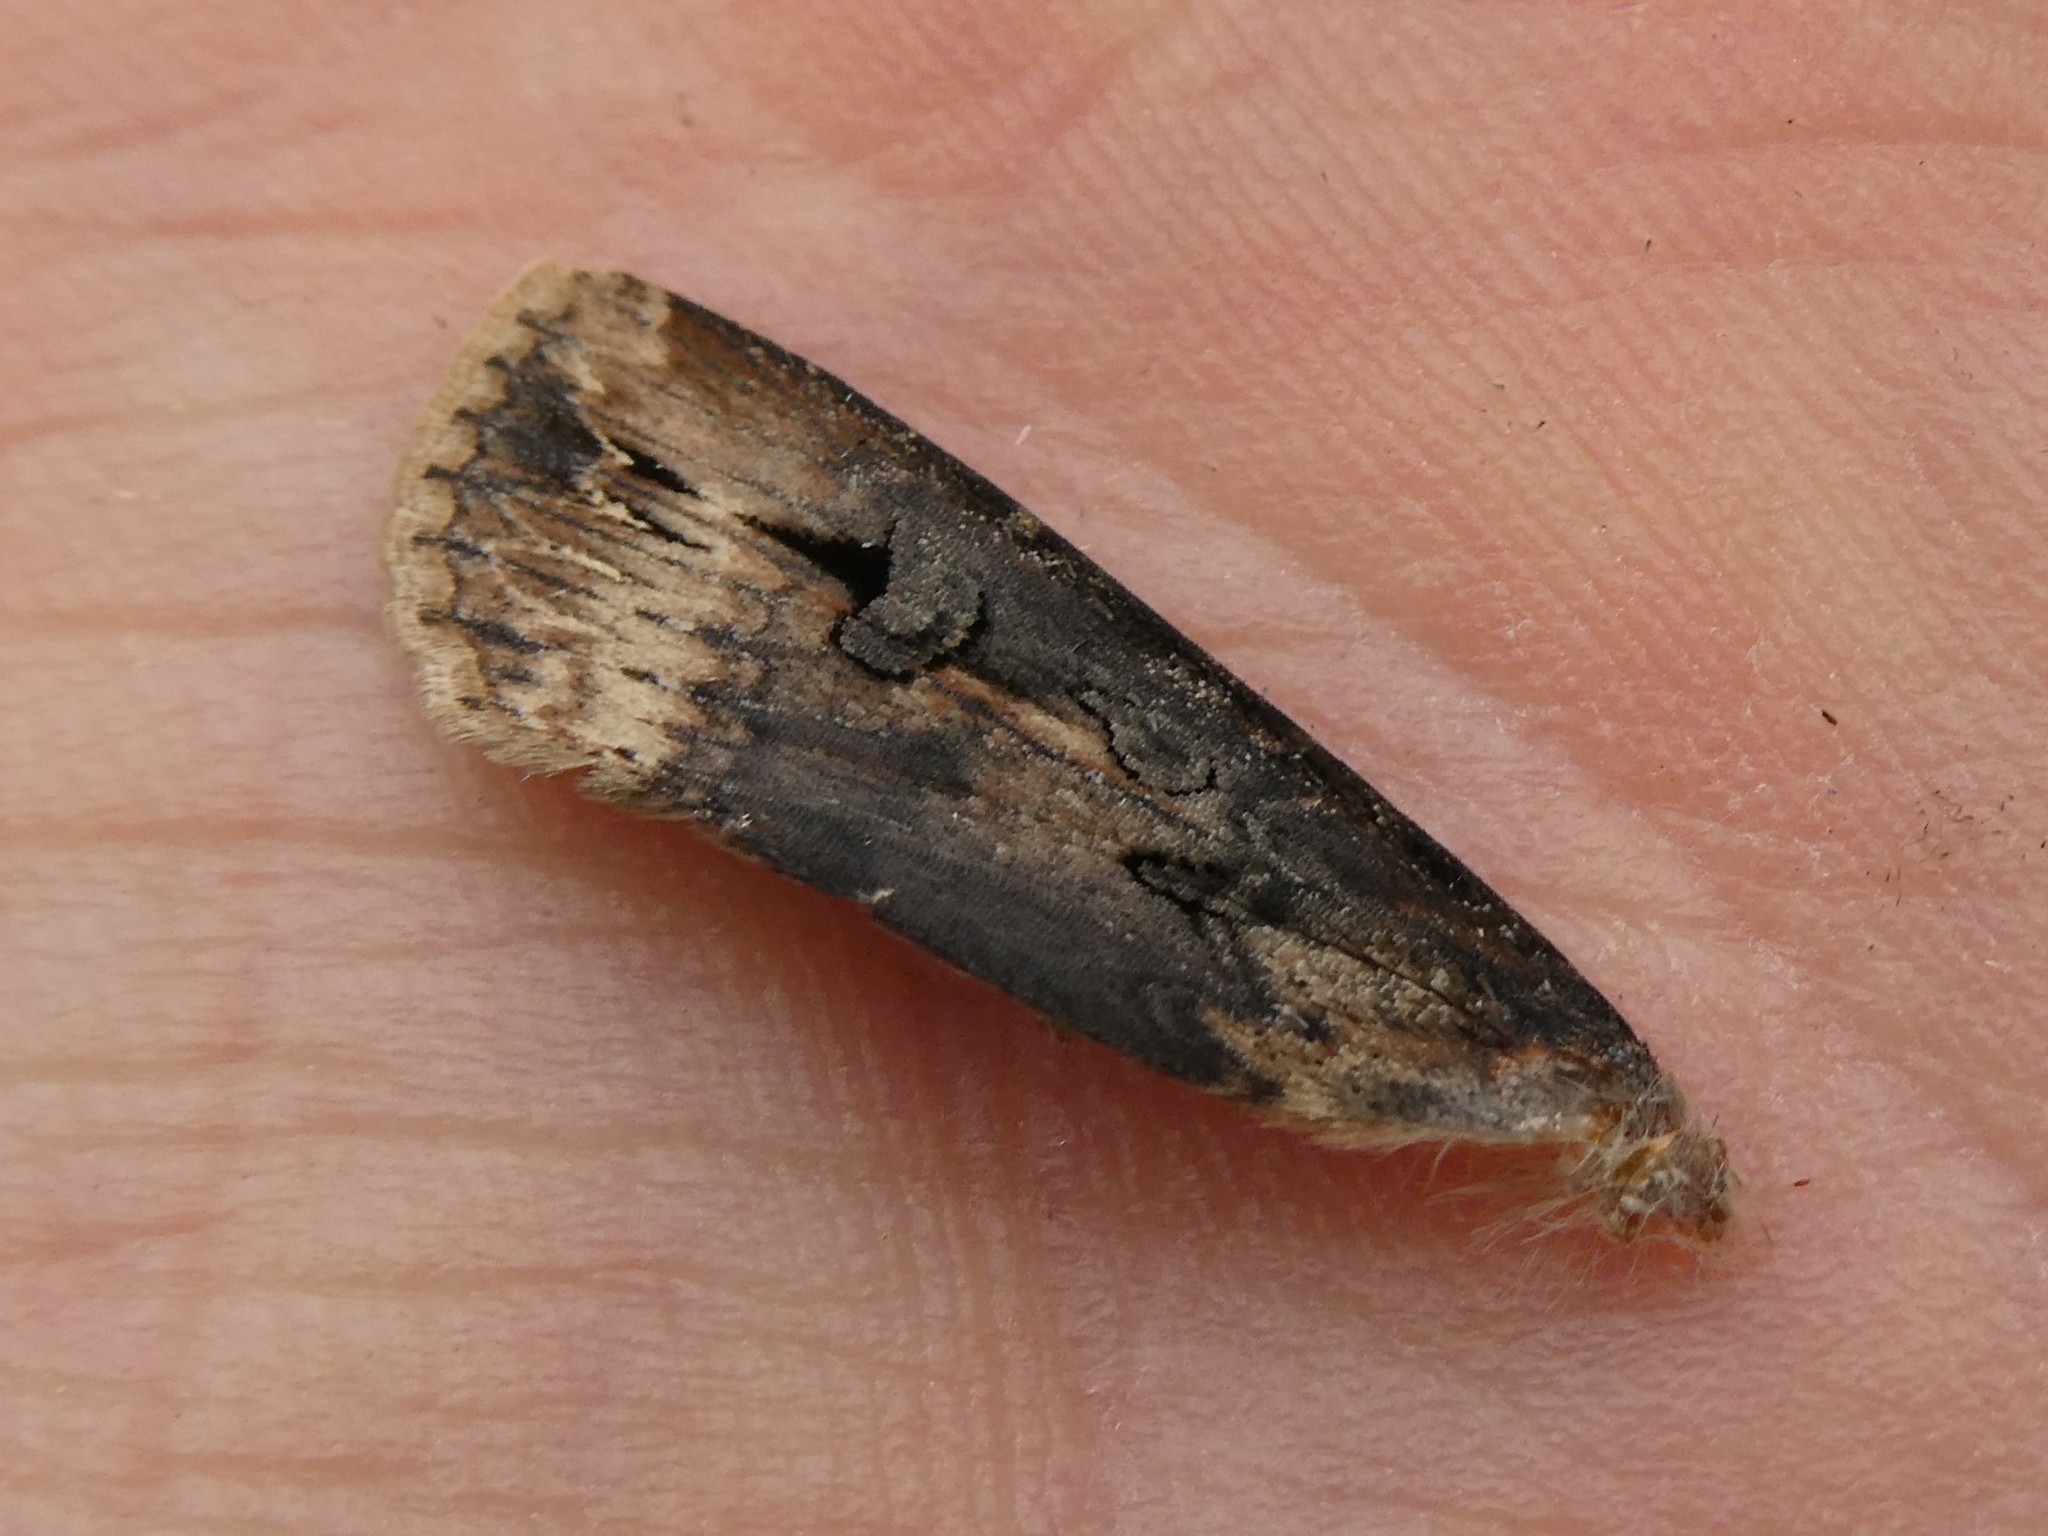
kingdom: Animalia
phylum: Arthropoda
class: Insecta
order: Lepidoptera
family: Noctuidae
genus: Agrotis
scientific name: Agrotis ipsilon
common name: Dark sword-grass
